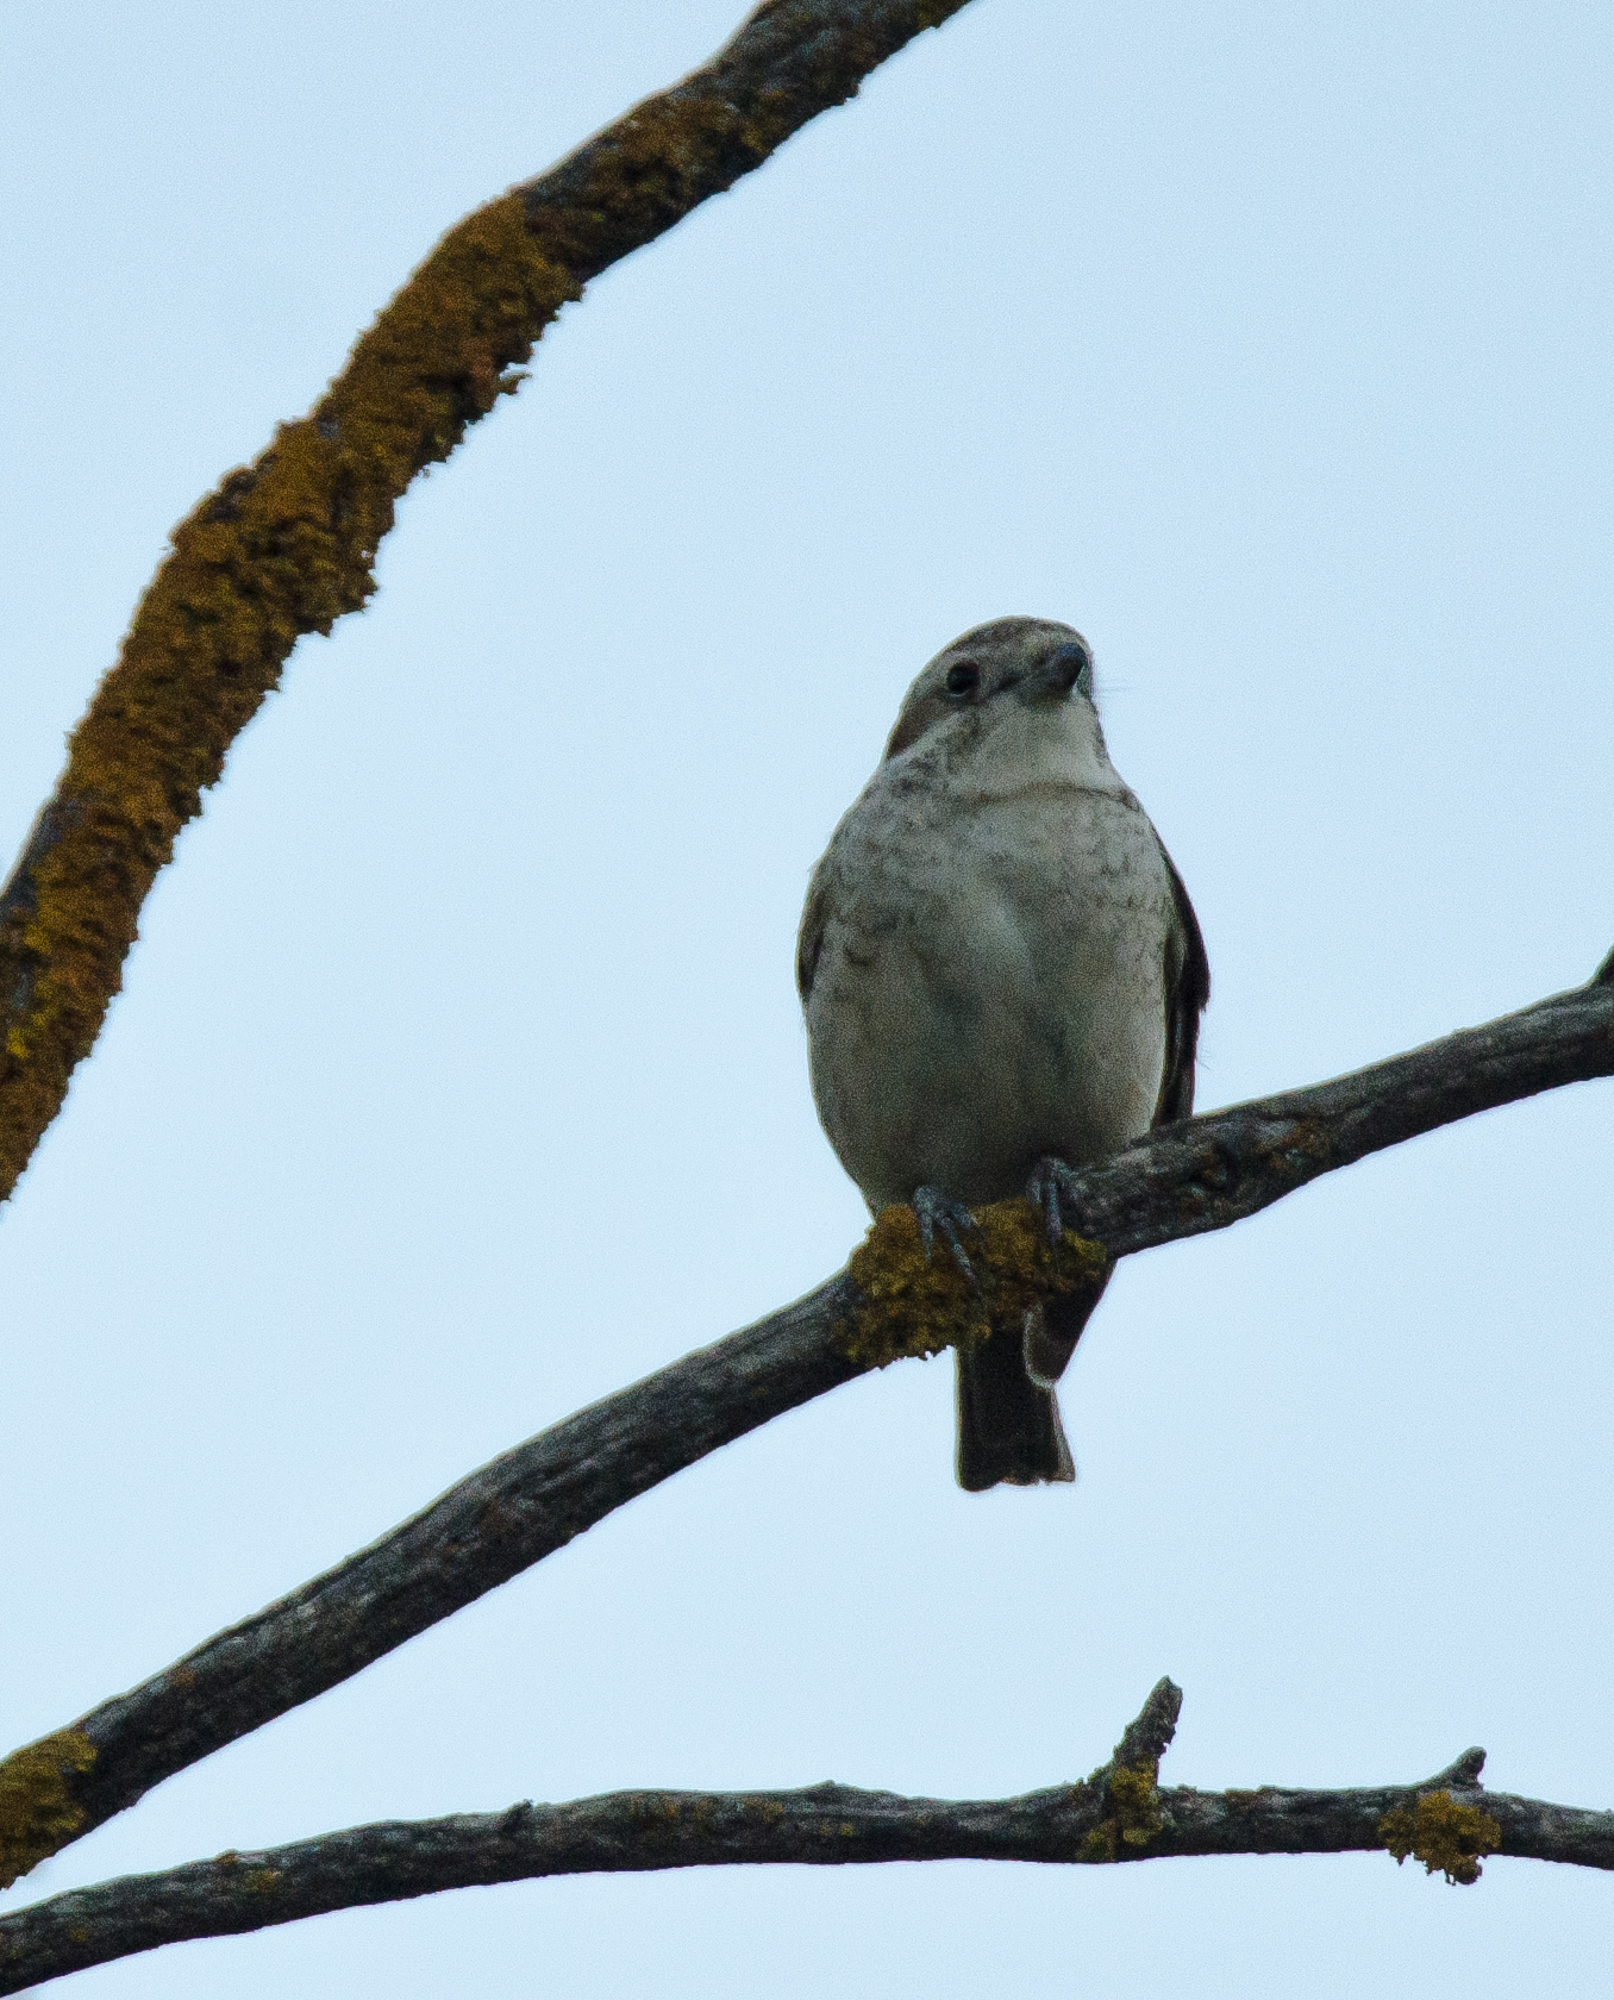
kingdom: Animalia
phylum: Chordata
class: Aves
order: Passeriformes
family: Laniidae
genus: Lanius
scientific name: Lanius collurio
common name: Red-backed shrike
